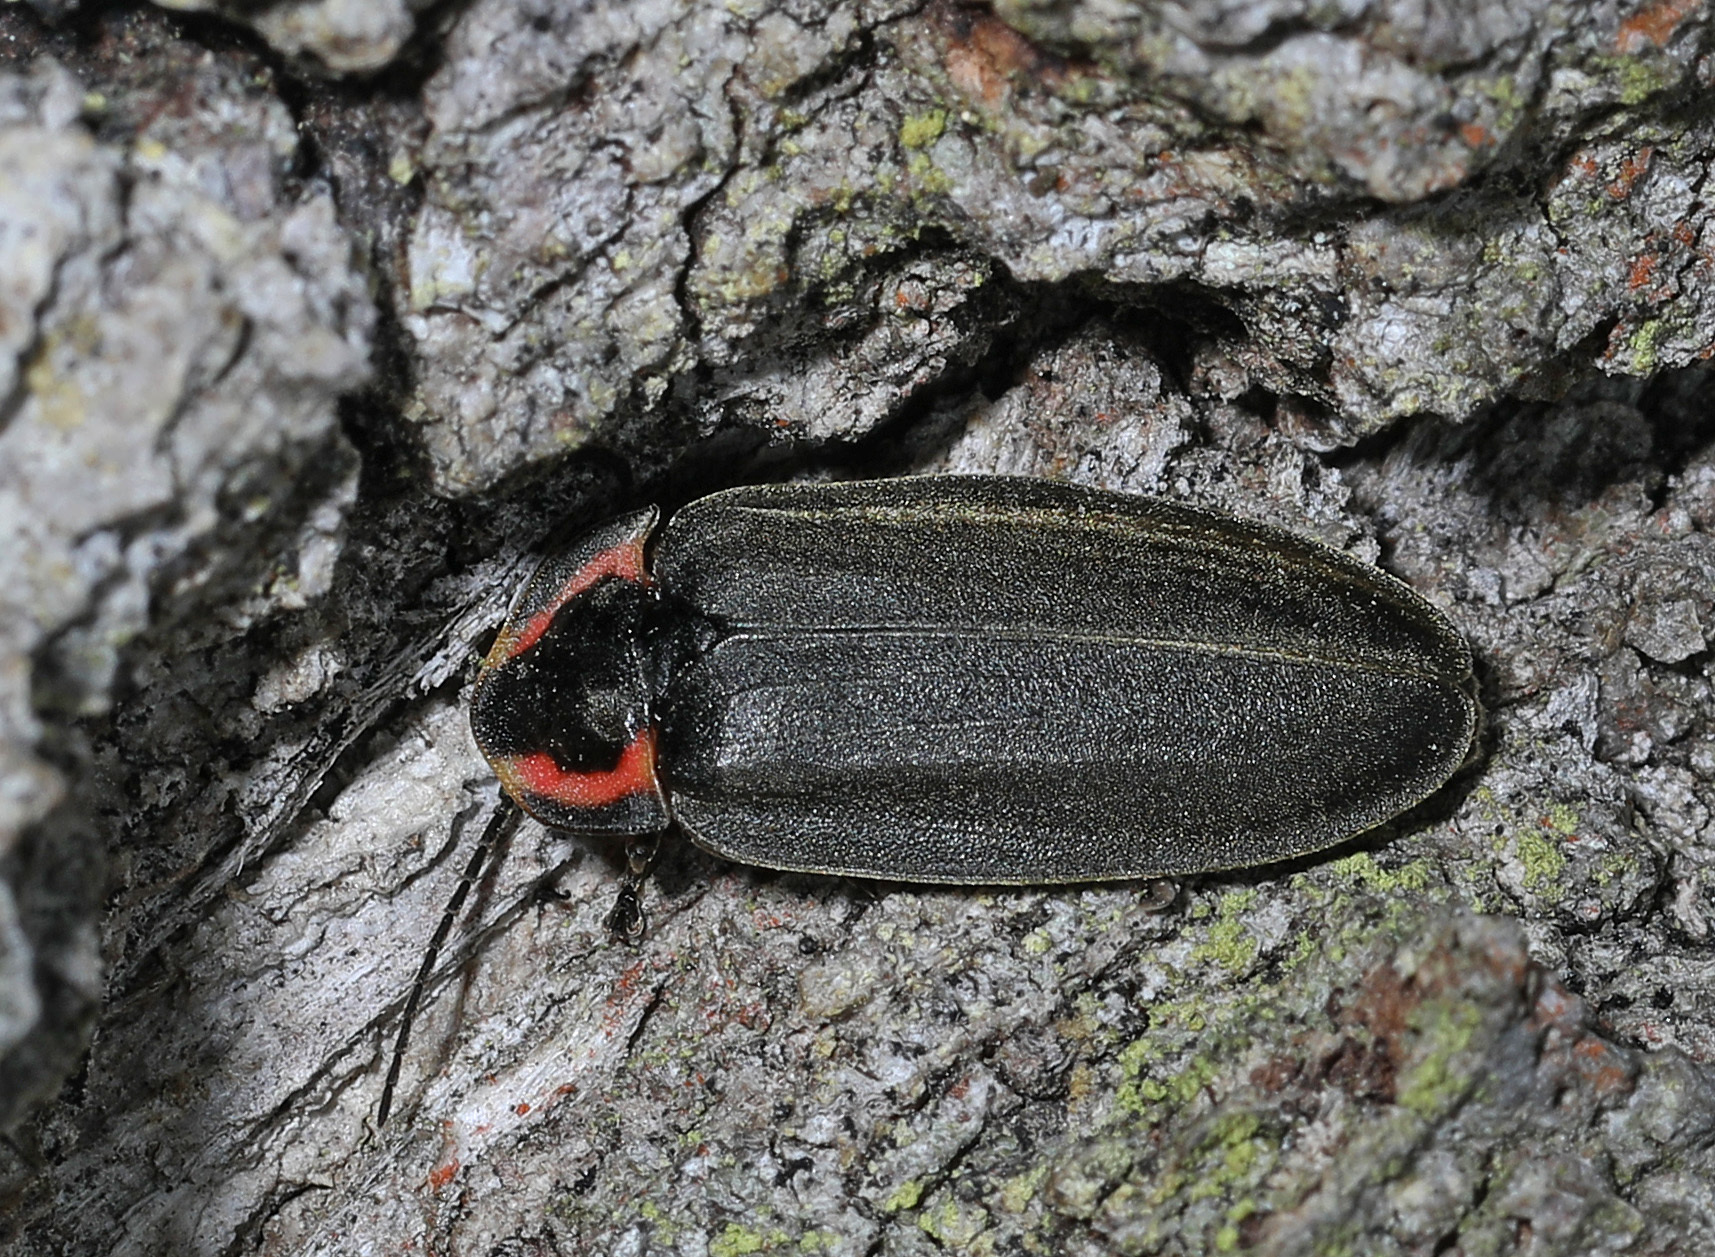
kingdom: Animalia
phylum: Arthropoda
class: Insecta
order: Coleoptera
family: Lampyridae
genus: Photinus
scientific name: Photinus corrusca
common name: Winter firefly
